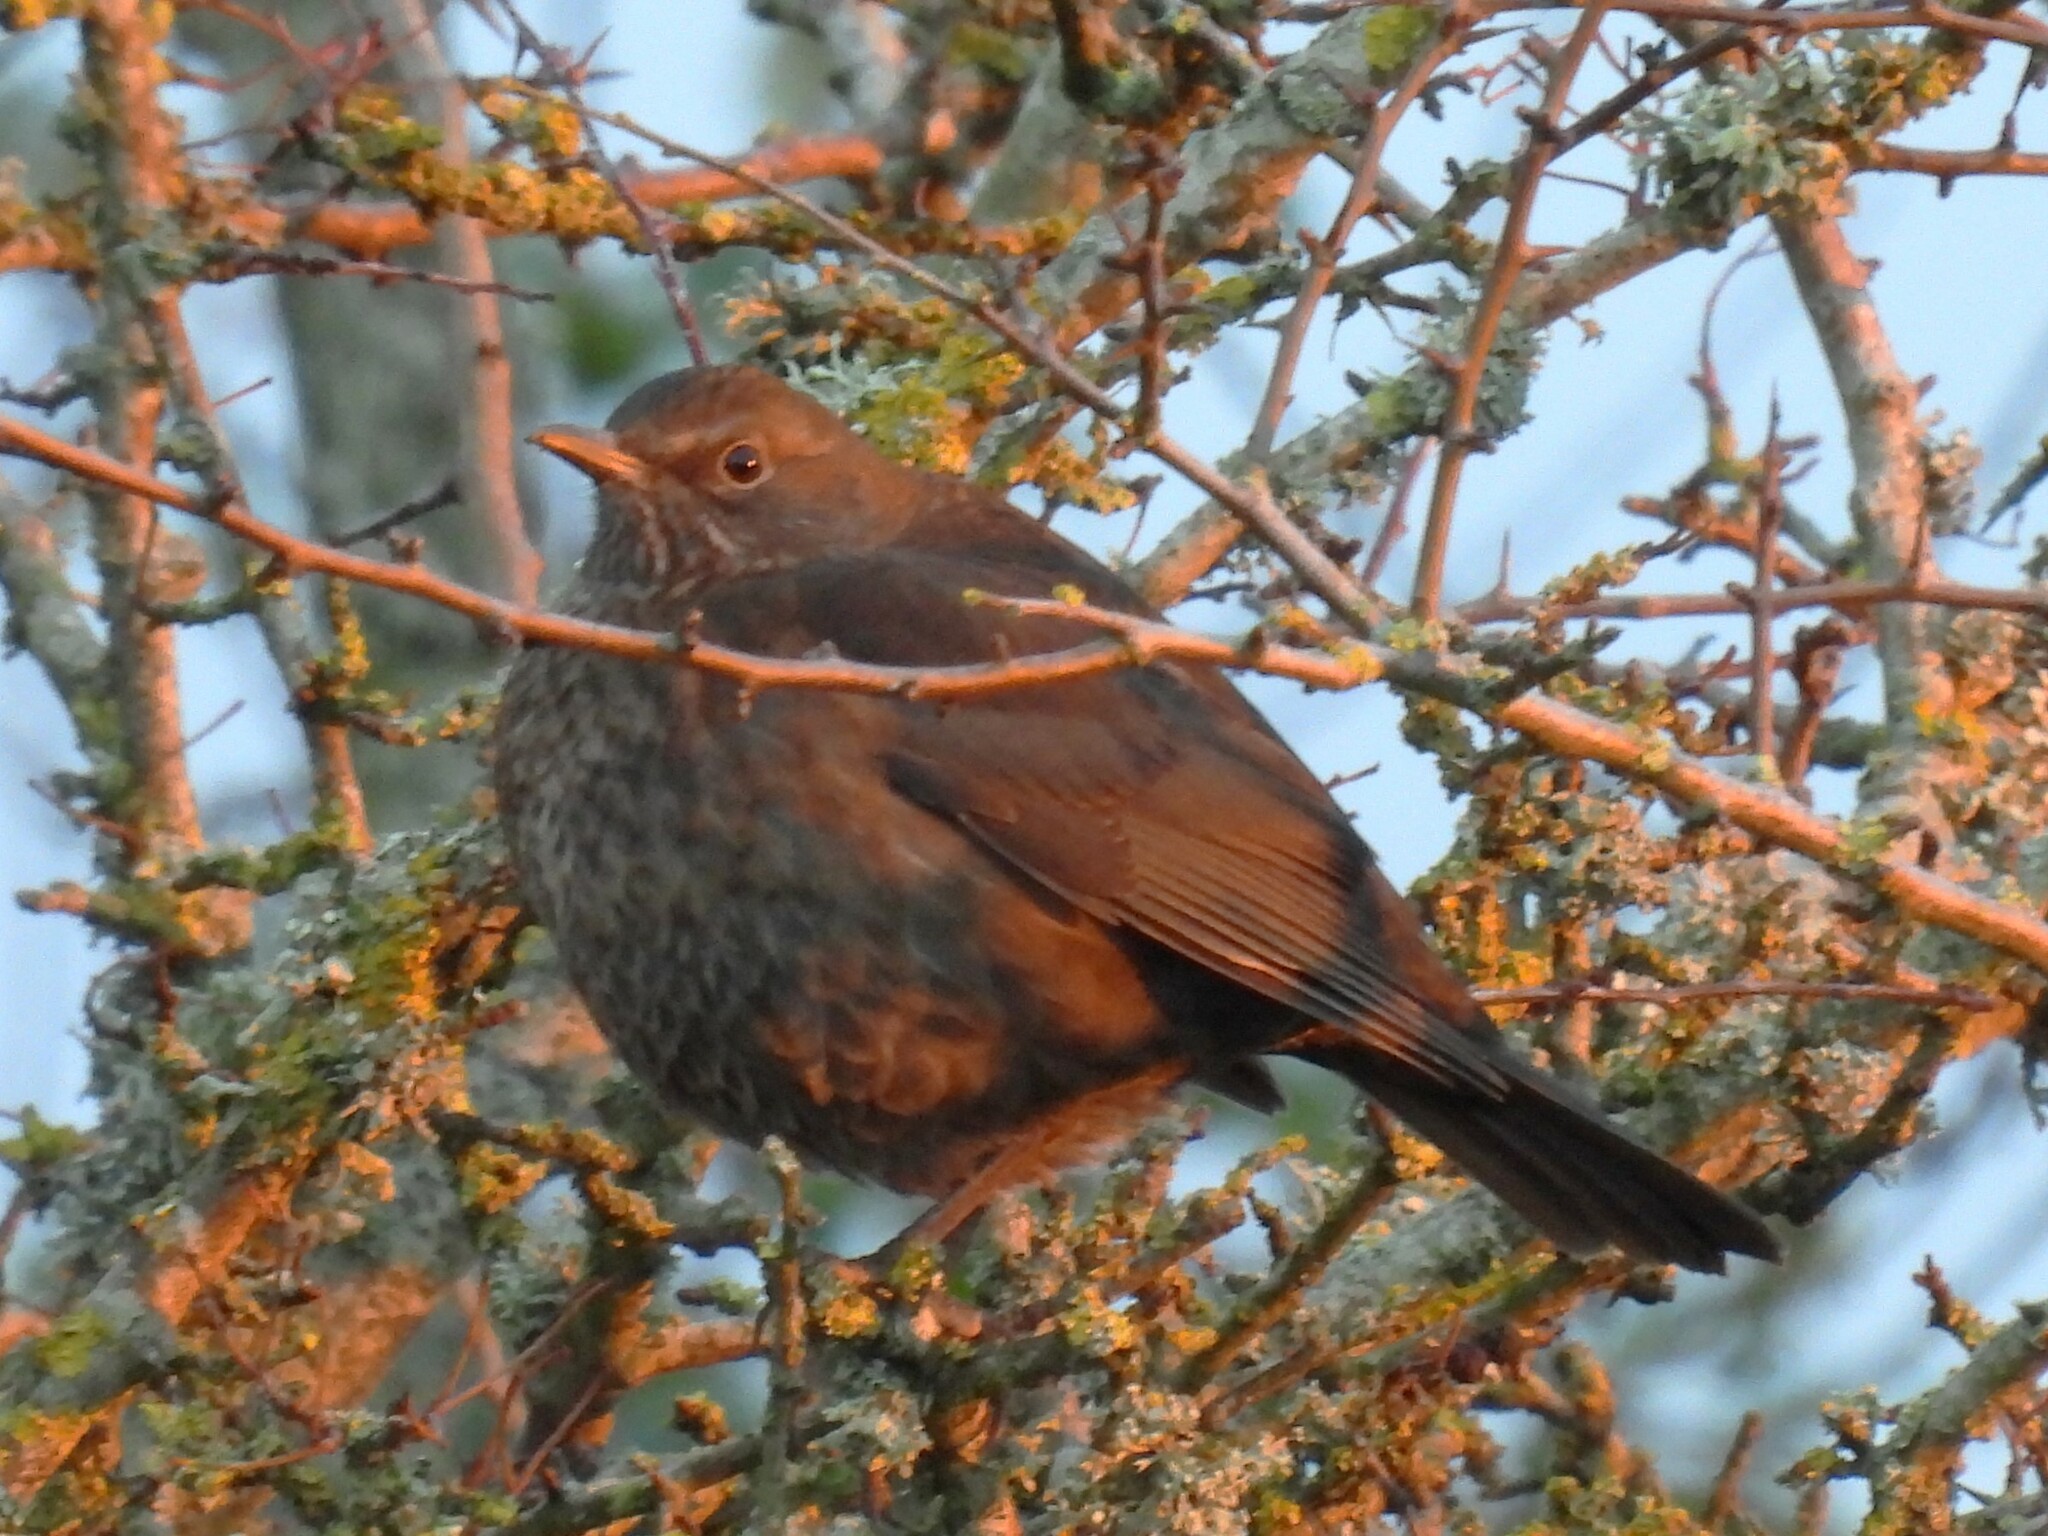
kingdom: Animalia
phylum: Chordata
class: Aves
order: Passeriformes
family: Turdidae
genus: Turdus
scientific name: Turdus merula
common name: Common blackbird
